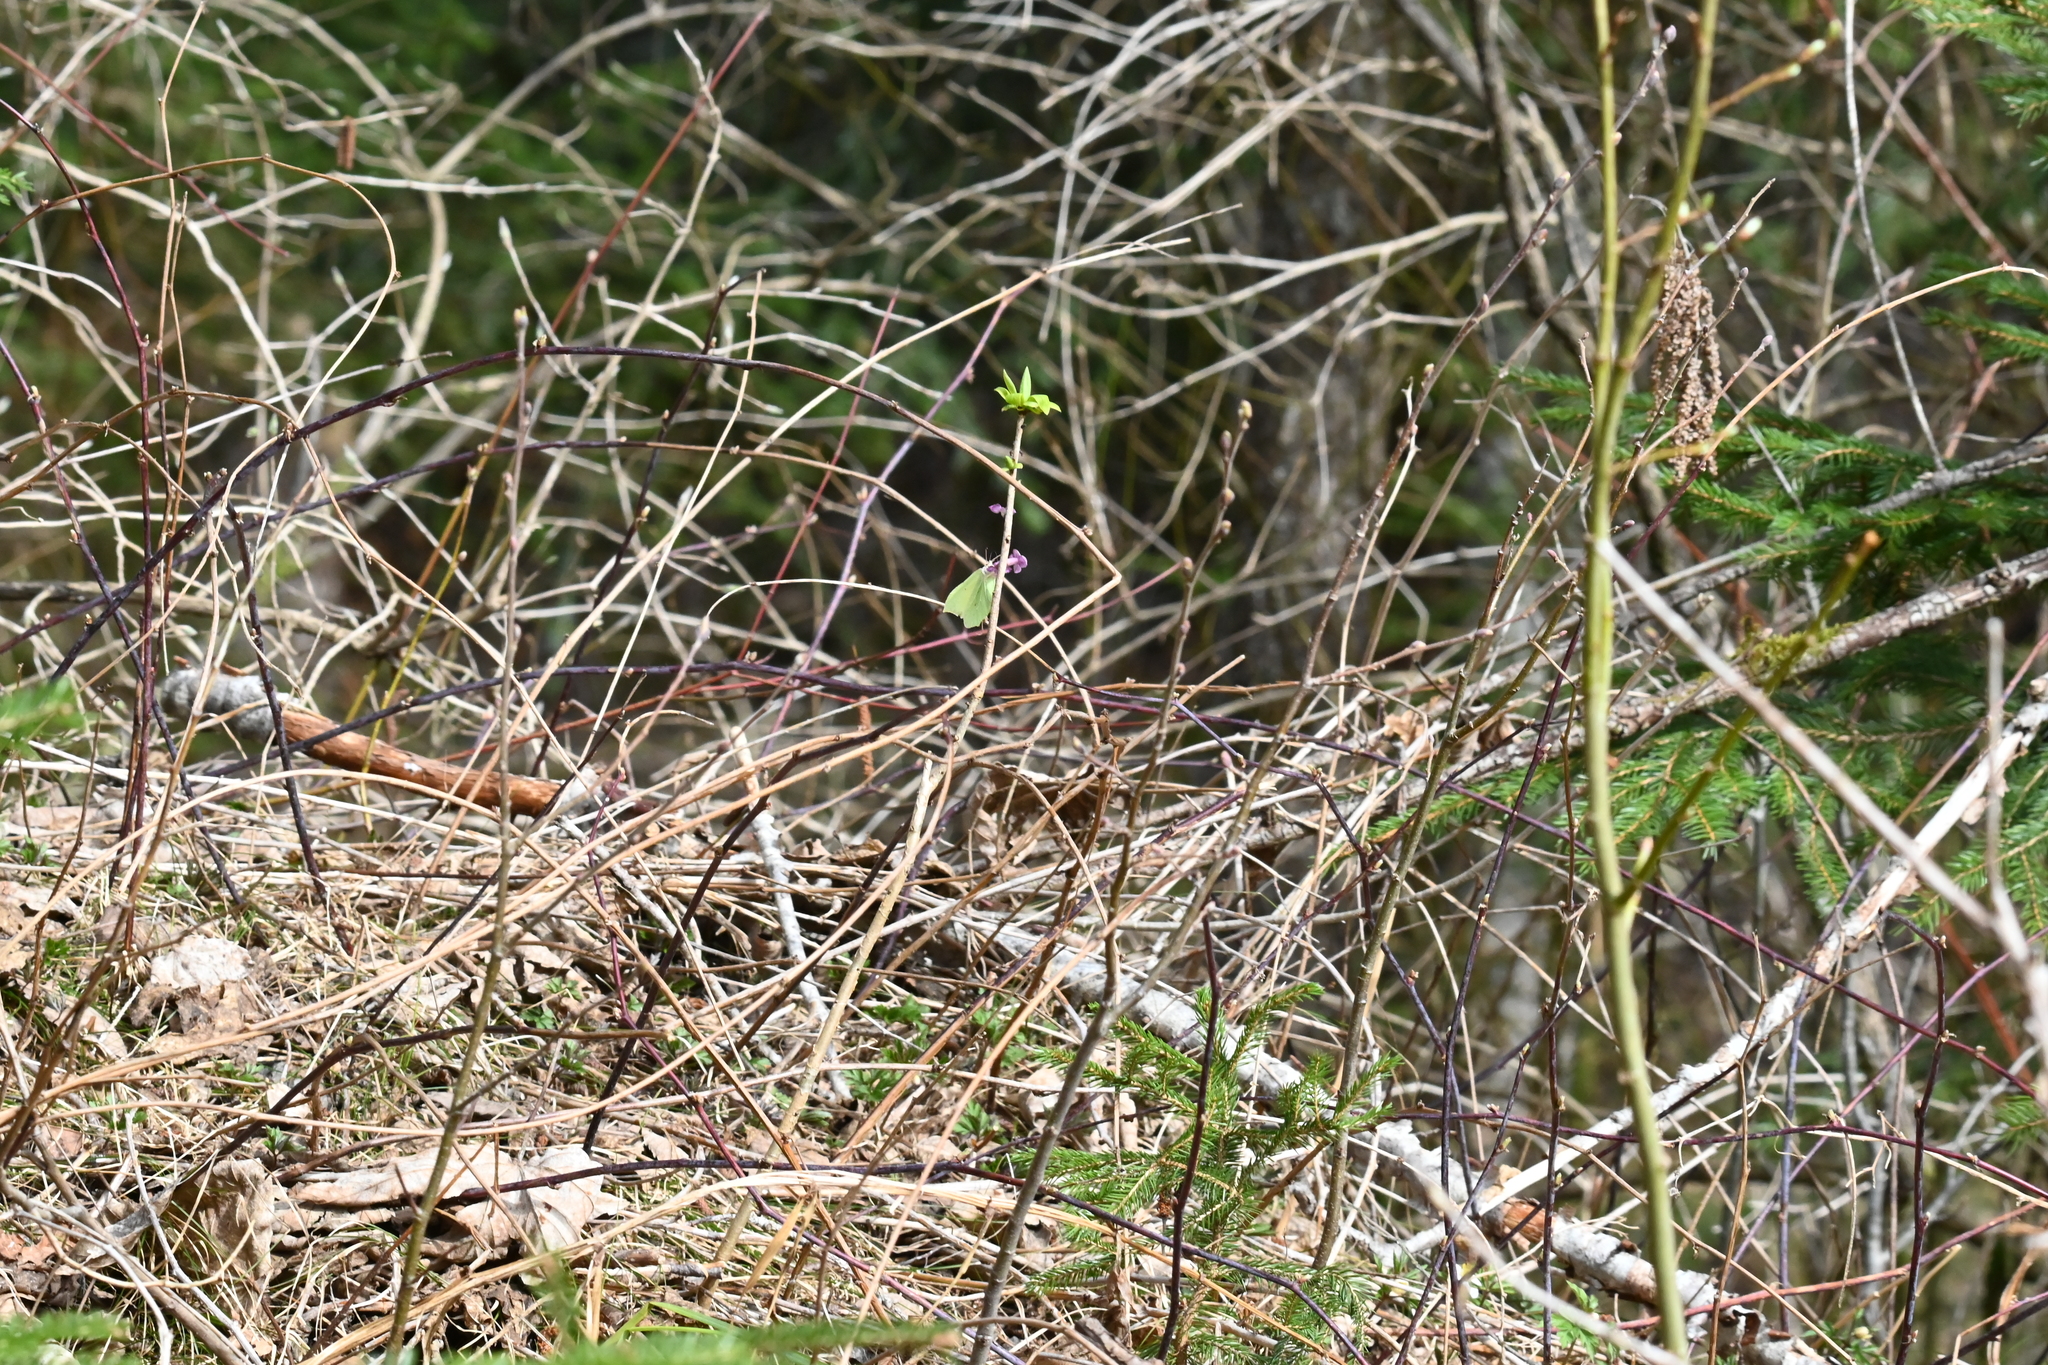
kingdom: Animalia
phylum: Arthropoda
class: Insecta
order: Lepidoptera
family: Pieridae
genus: Gonepteryx
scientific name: Gonepteryx rhamni
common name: Brimstone
